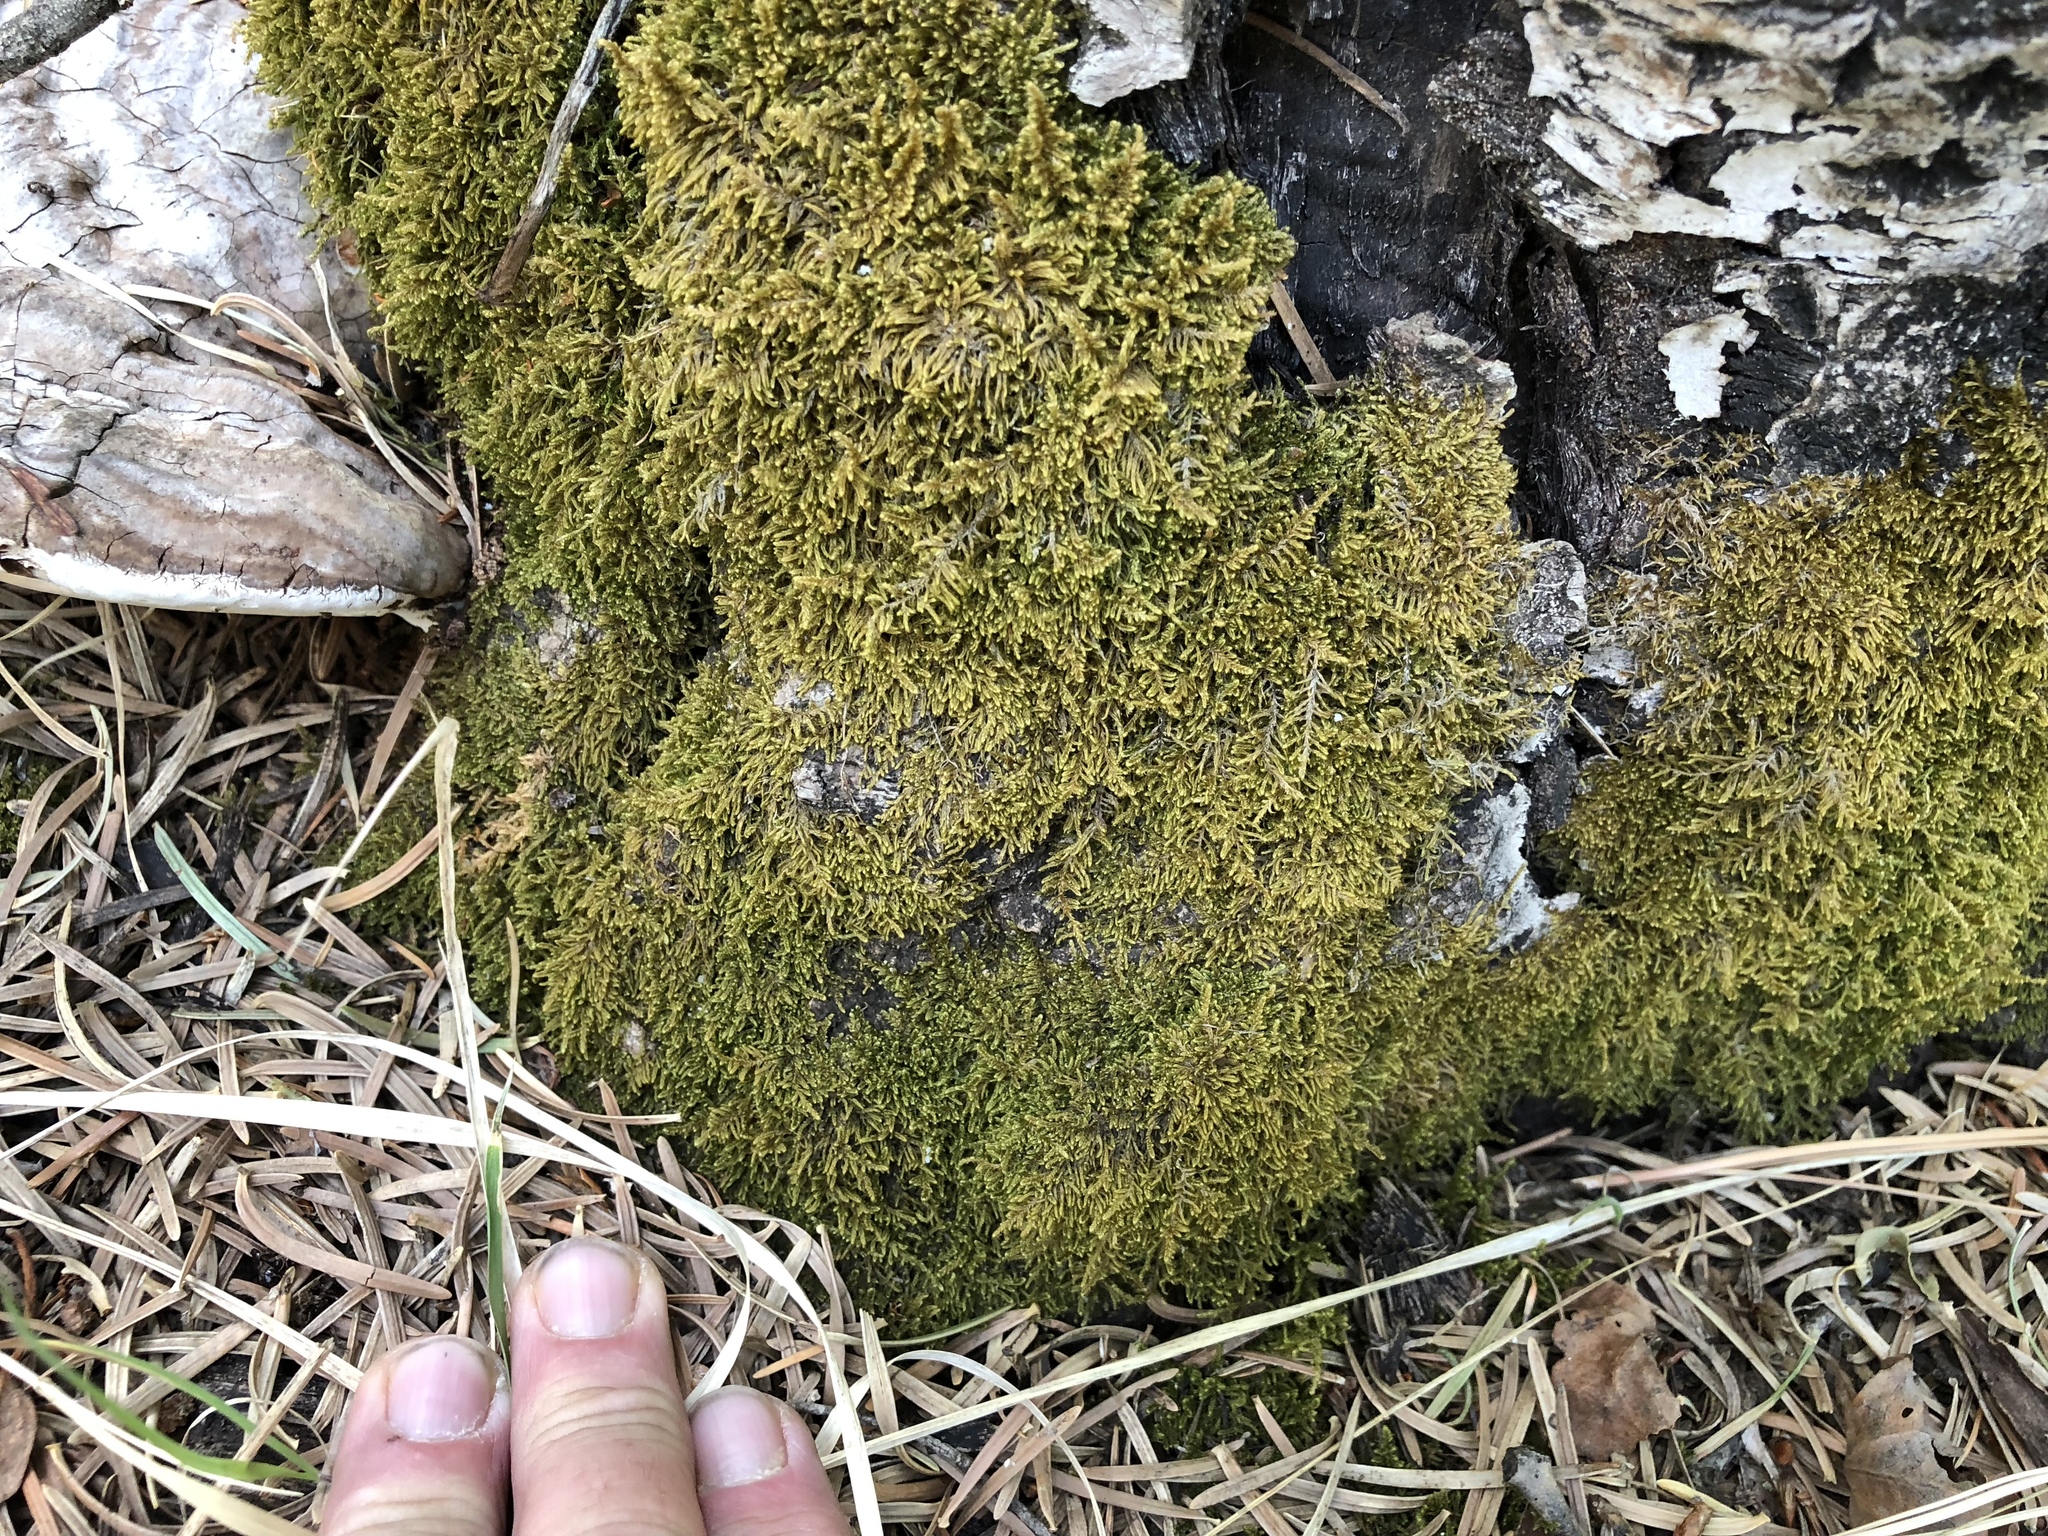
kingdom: Plantae
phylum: Bryophyta
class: Bryopsida
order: Hypnales
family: Pylaisiaceae
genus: Roaldia
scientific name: Roaldia revoluta
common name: Revolute plait-moss
